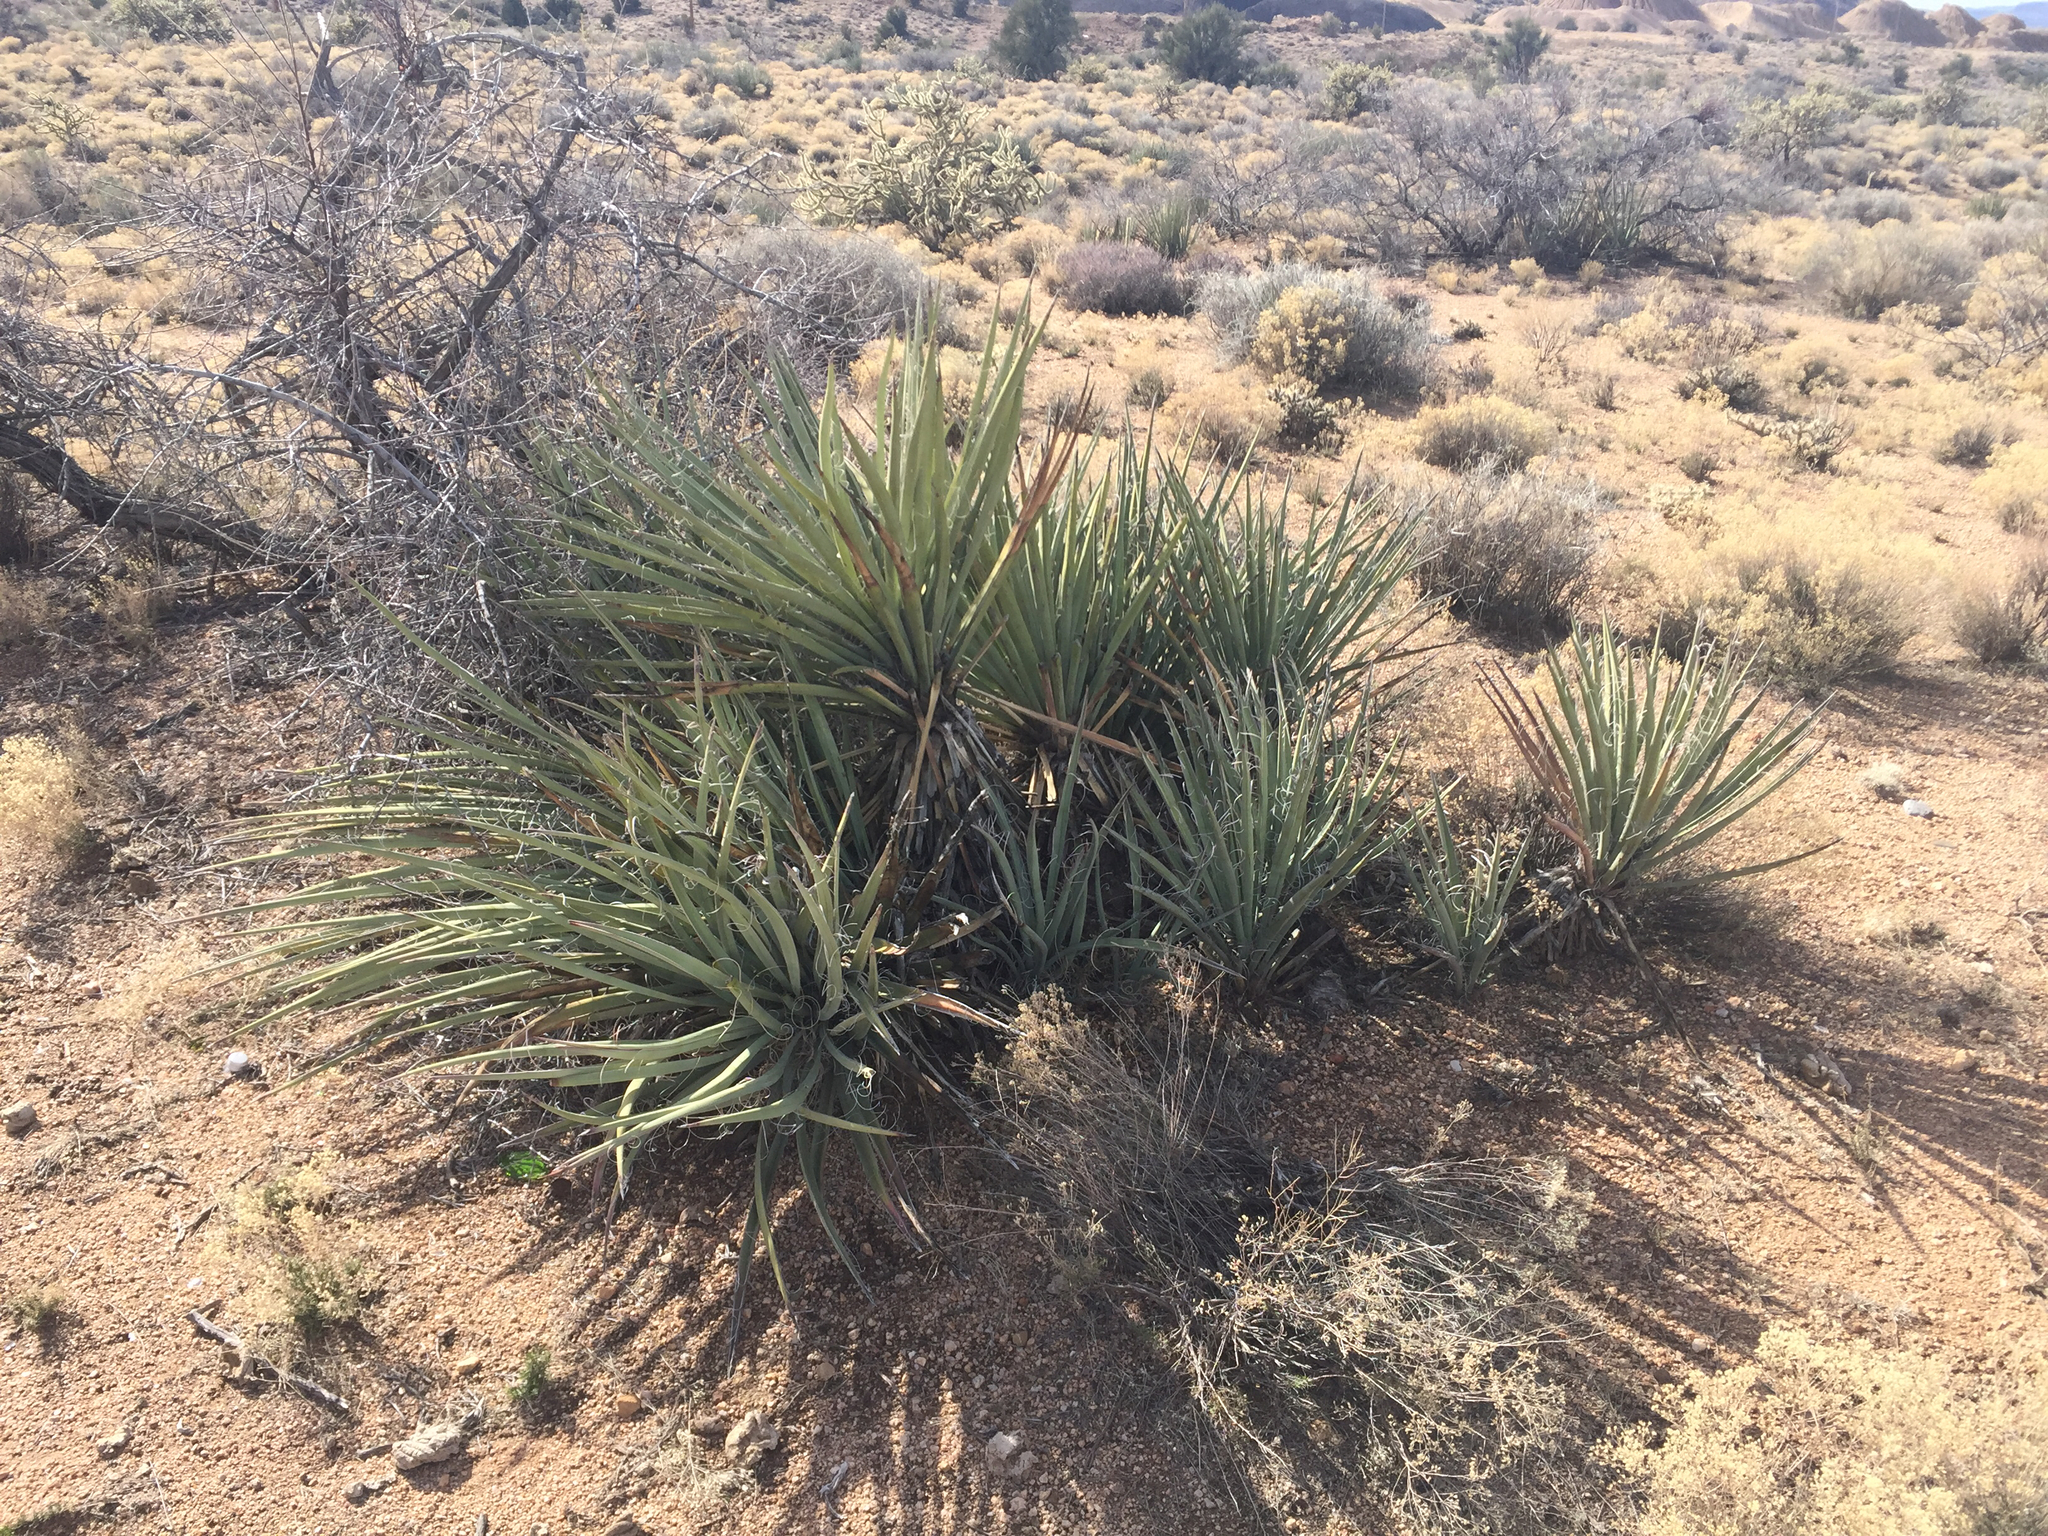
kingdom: Plantae
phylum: Tracheophyta
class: Liliopsida
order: Asparagales
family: Asparagaceae
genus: Yucca
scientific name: Yucca baccata
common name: Banana yucca
